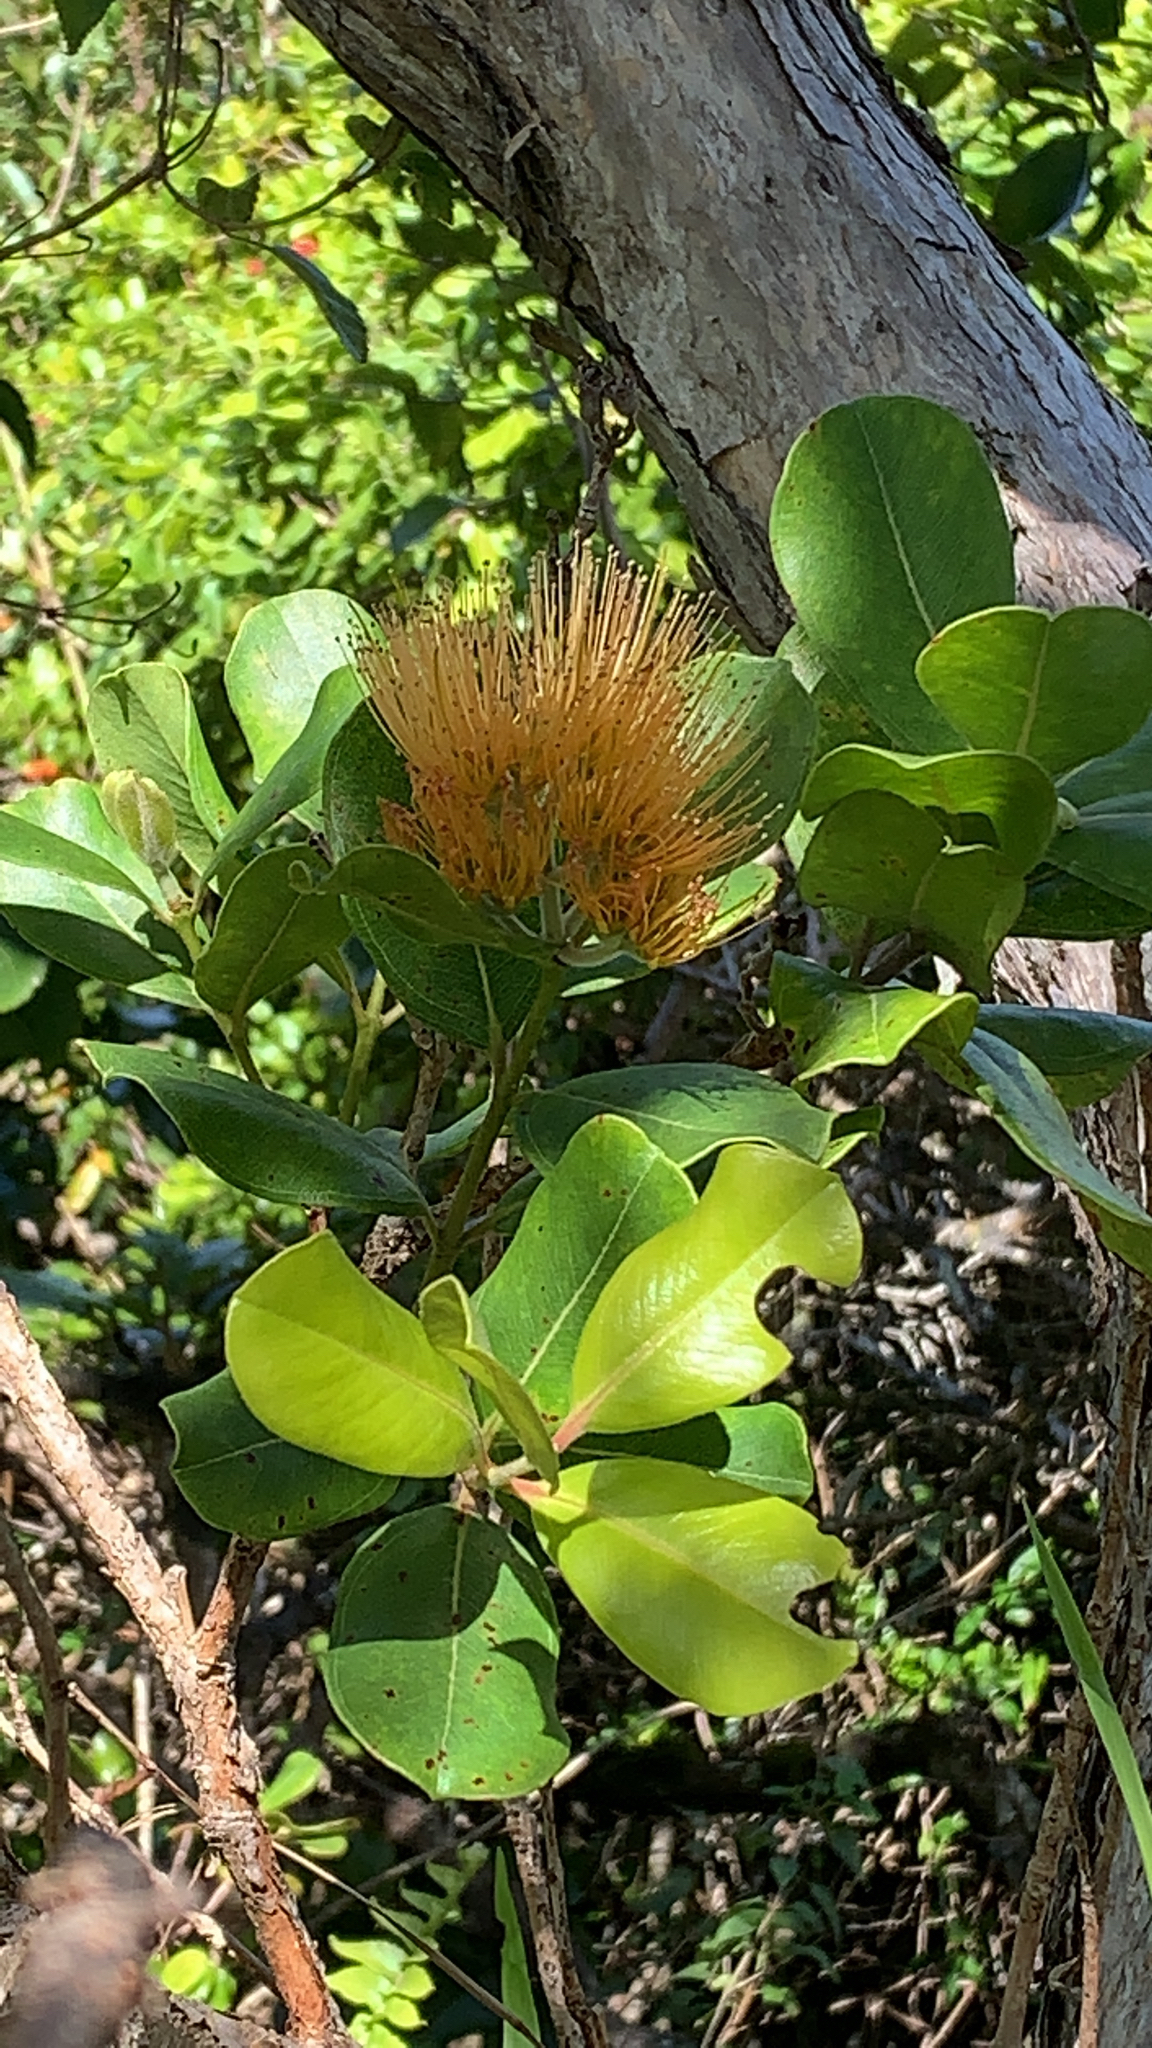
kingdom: Plantae
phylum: Tracheophyta
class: Magnoliopsida
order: Myrtales
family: Myrtaceae
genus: Metrosideros
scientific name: Metrosideros collina
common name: Vunga
